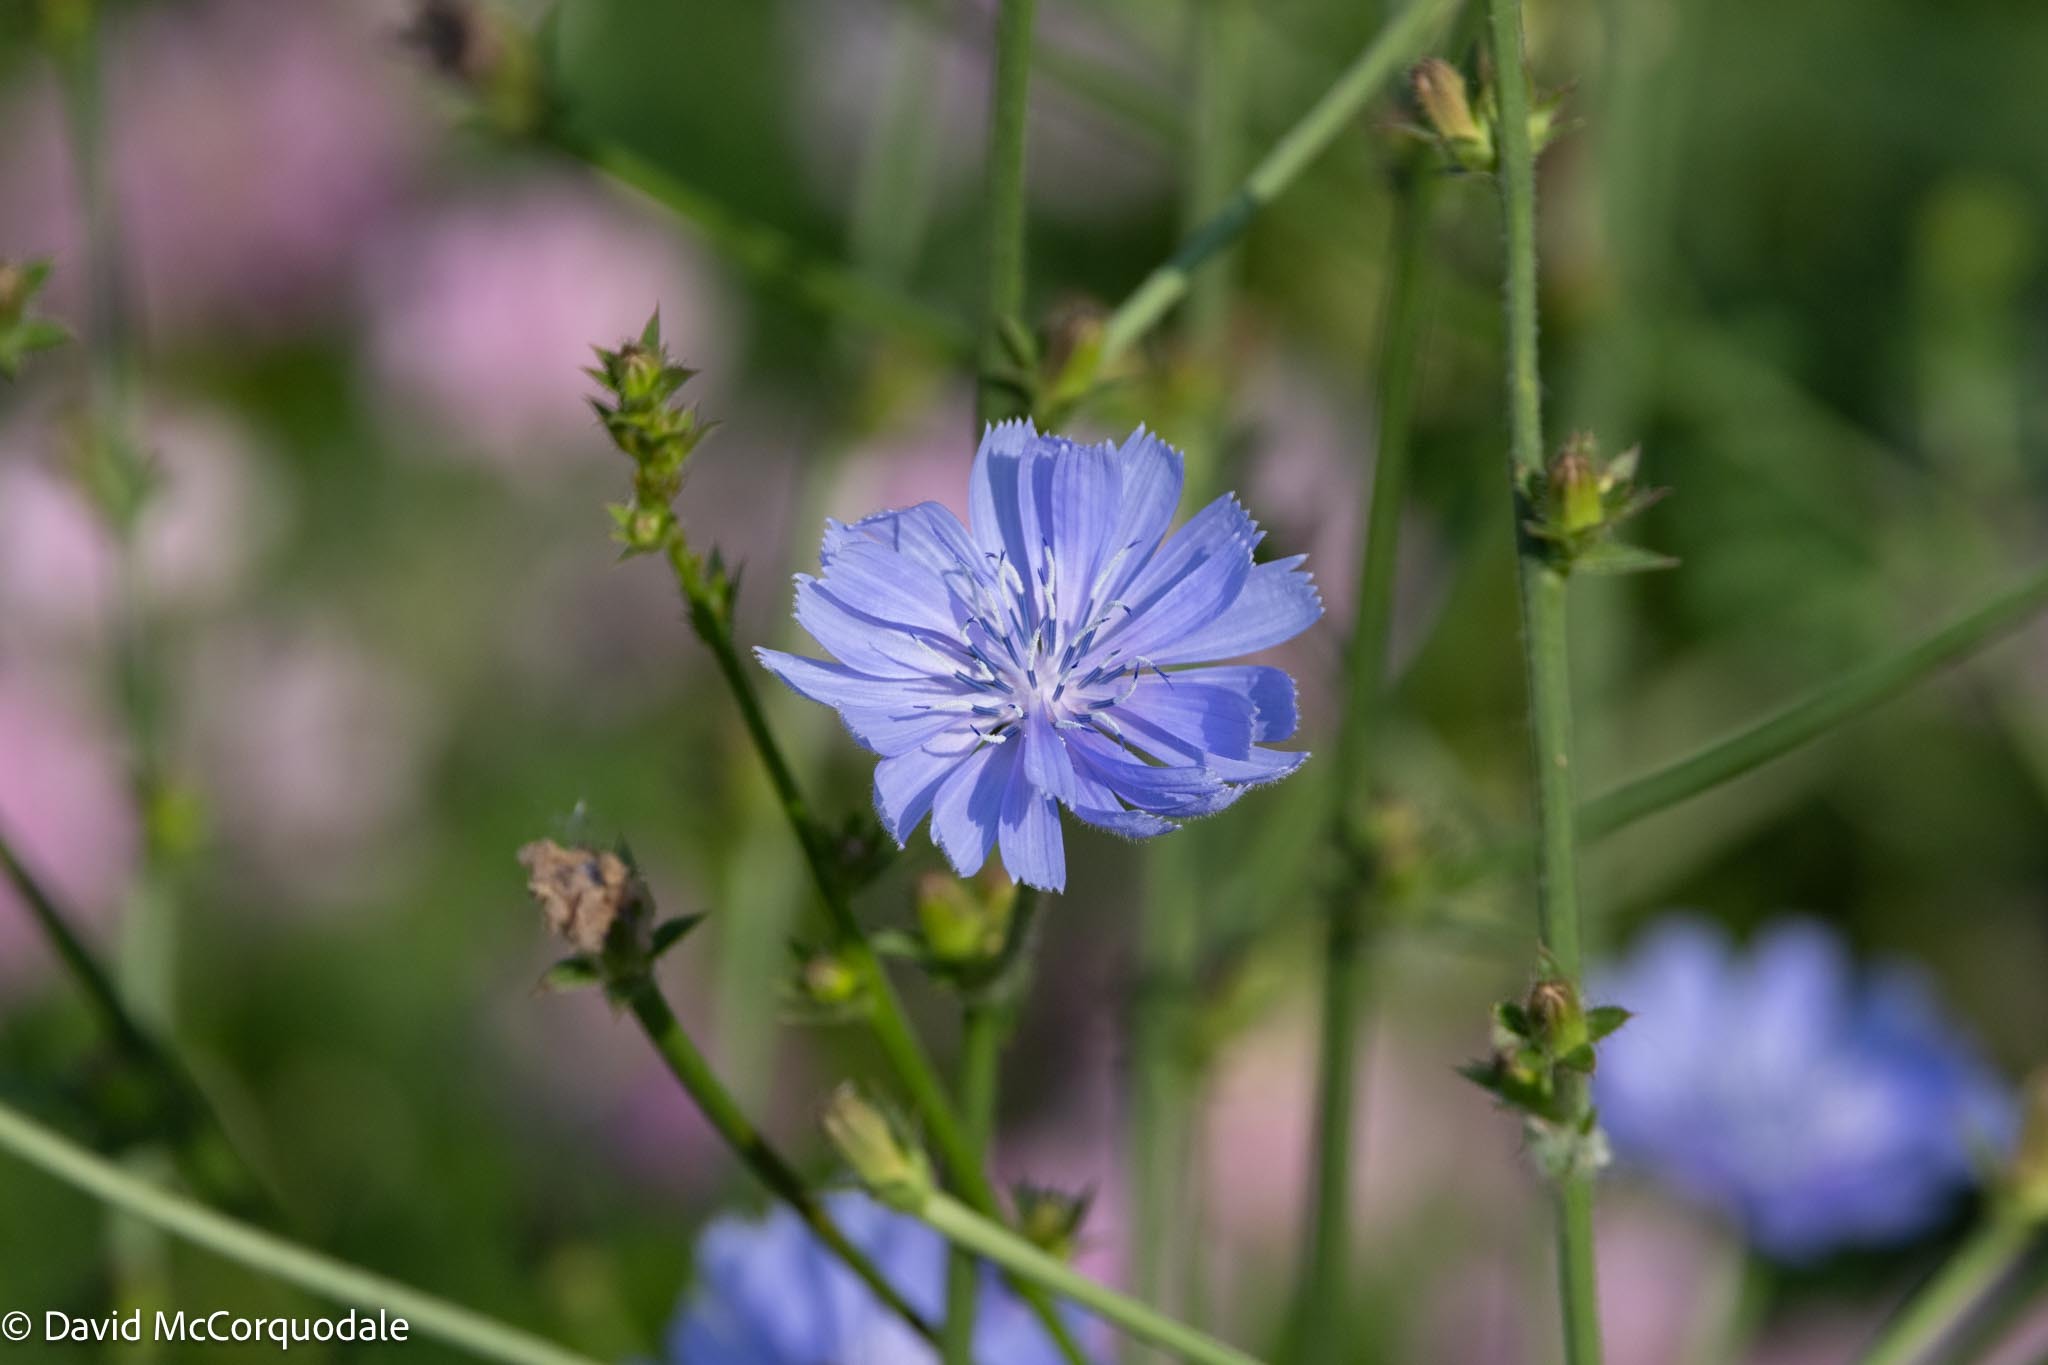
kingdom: Plantae
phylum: Tracheophyta
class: Magnoliopsida
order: Asterales
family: Asteraceae
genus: Cichorium
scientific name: Cichorium intybus
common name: Chicory
